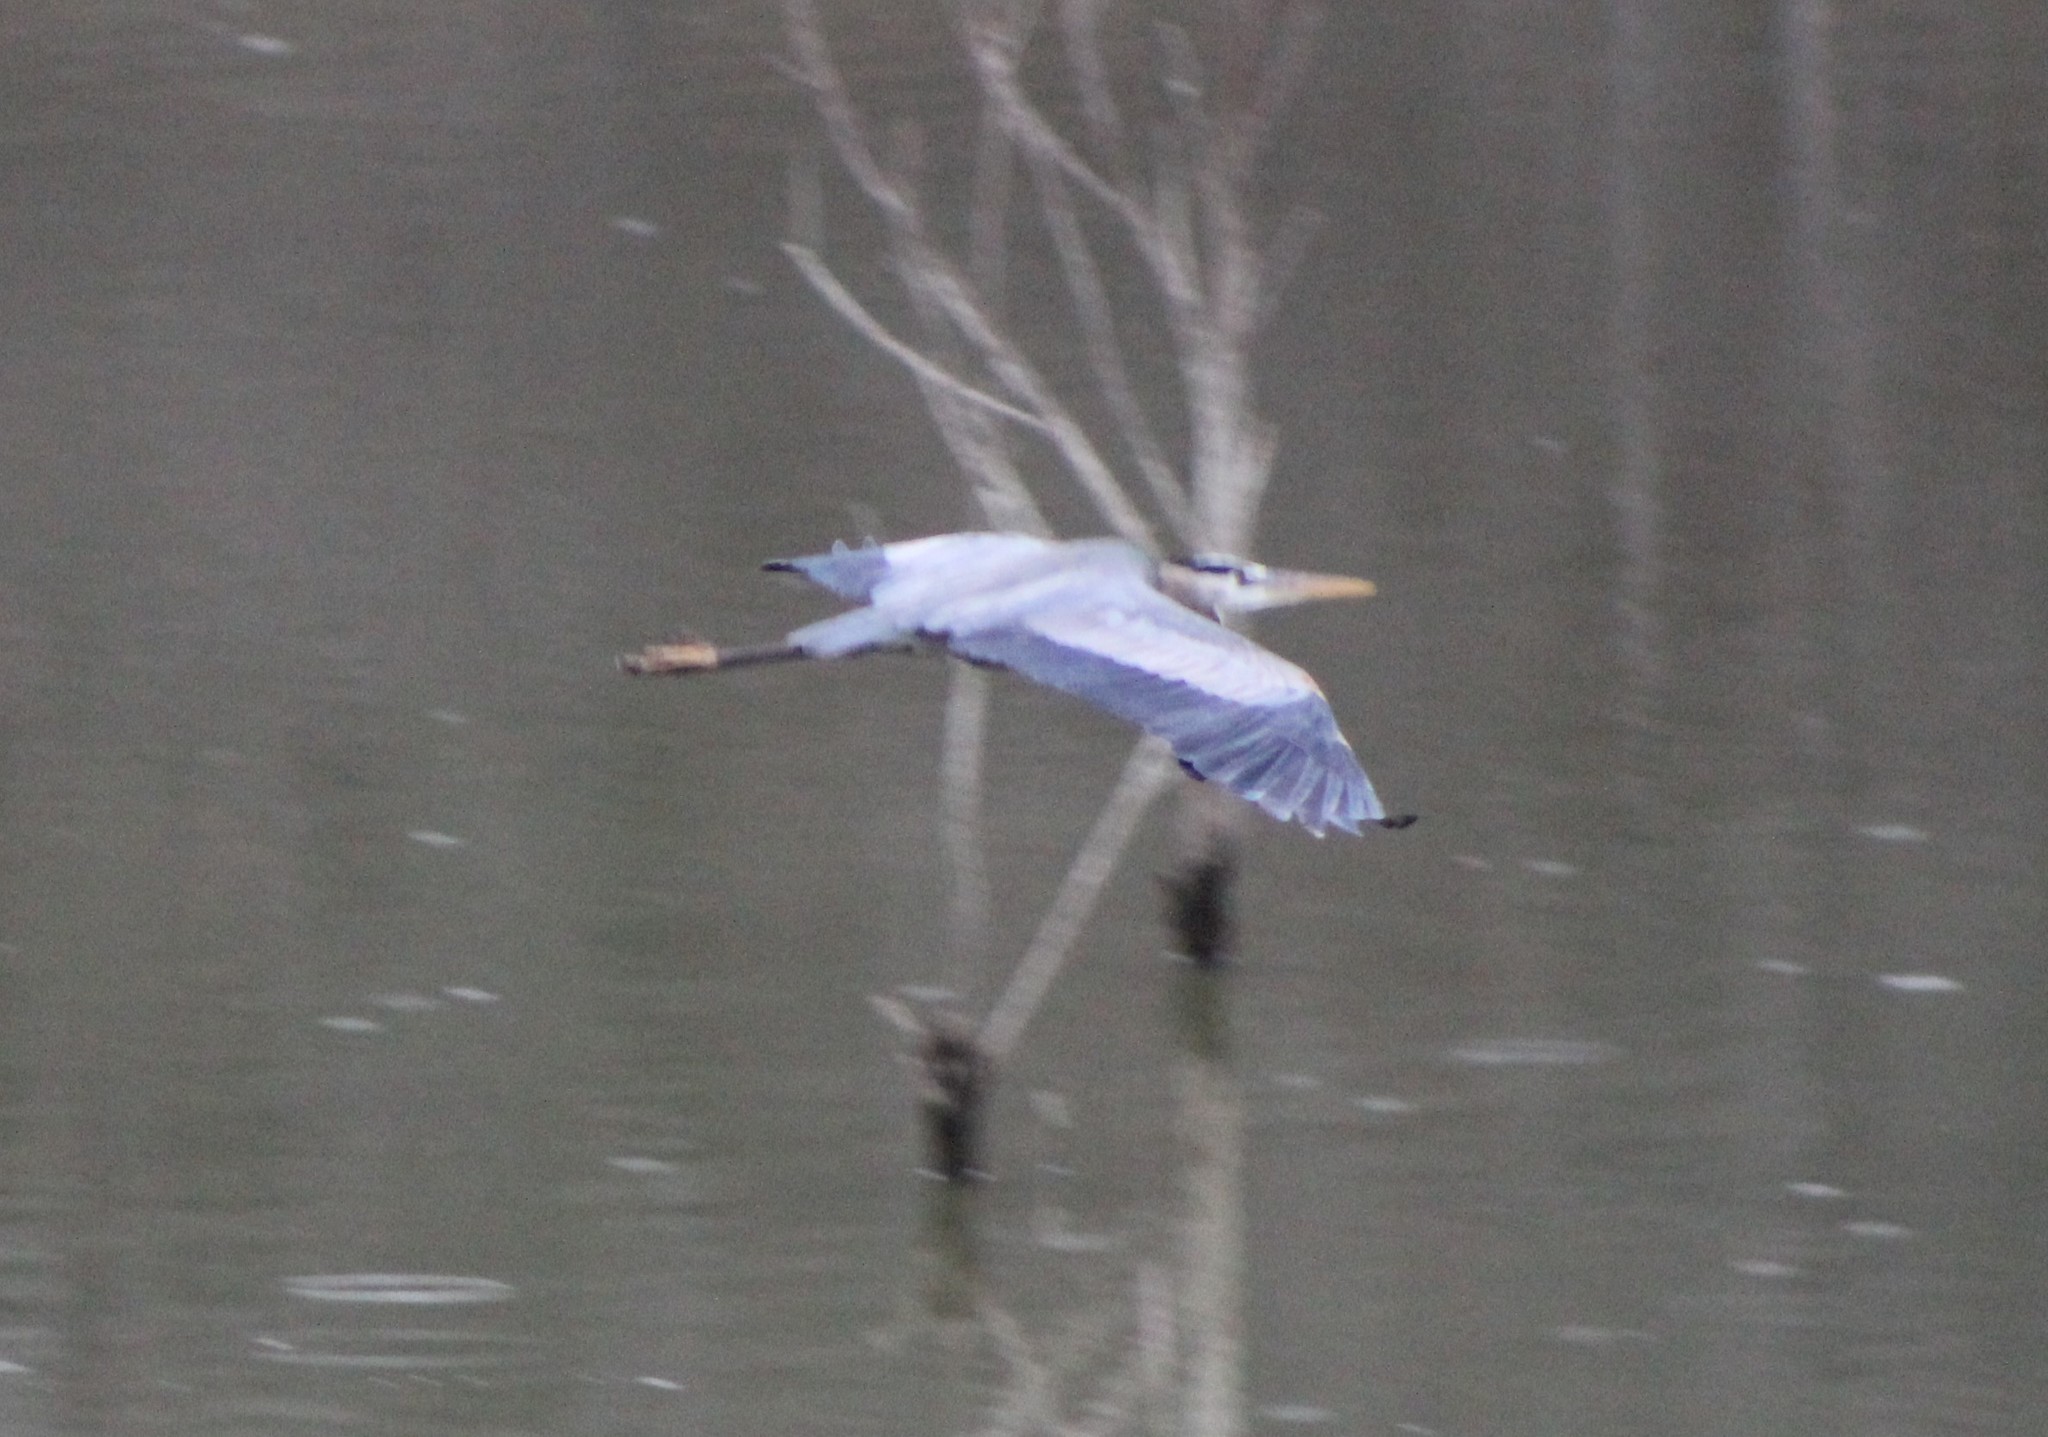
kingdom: Animalia
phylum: Chordata
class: Aves
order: Pelecaniformes
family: Ardeidae
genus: Ardea
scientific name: Ardea herodias
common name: Great blue heron
